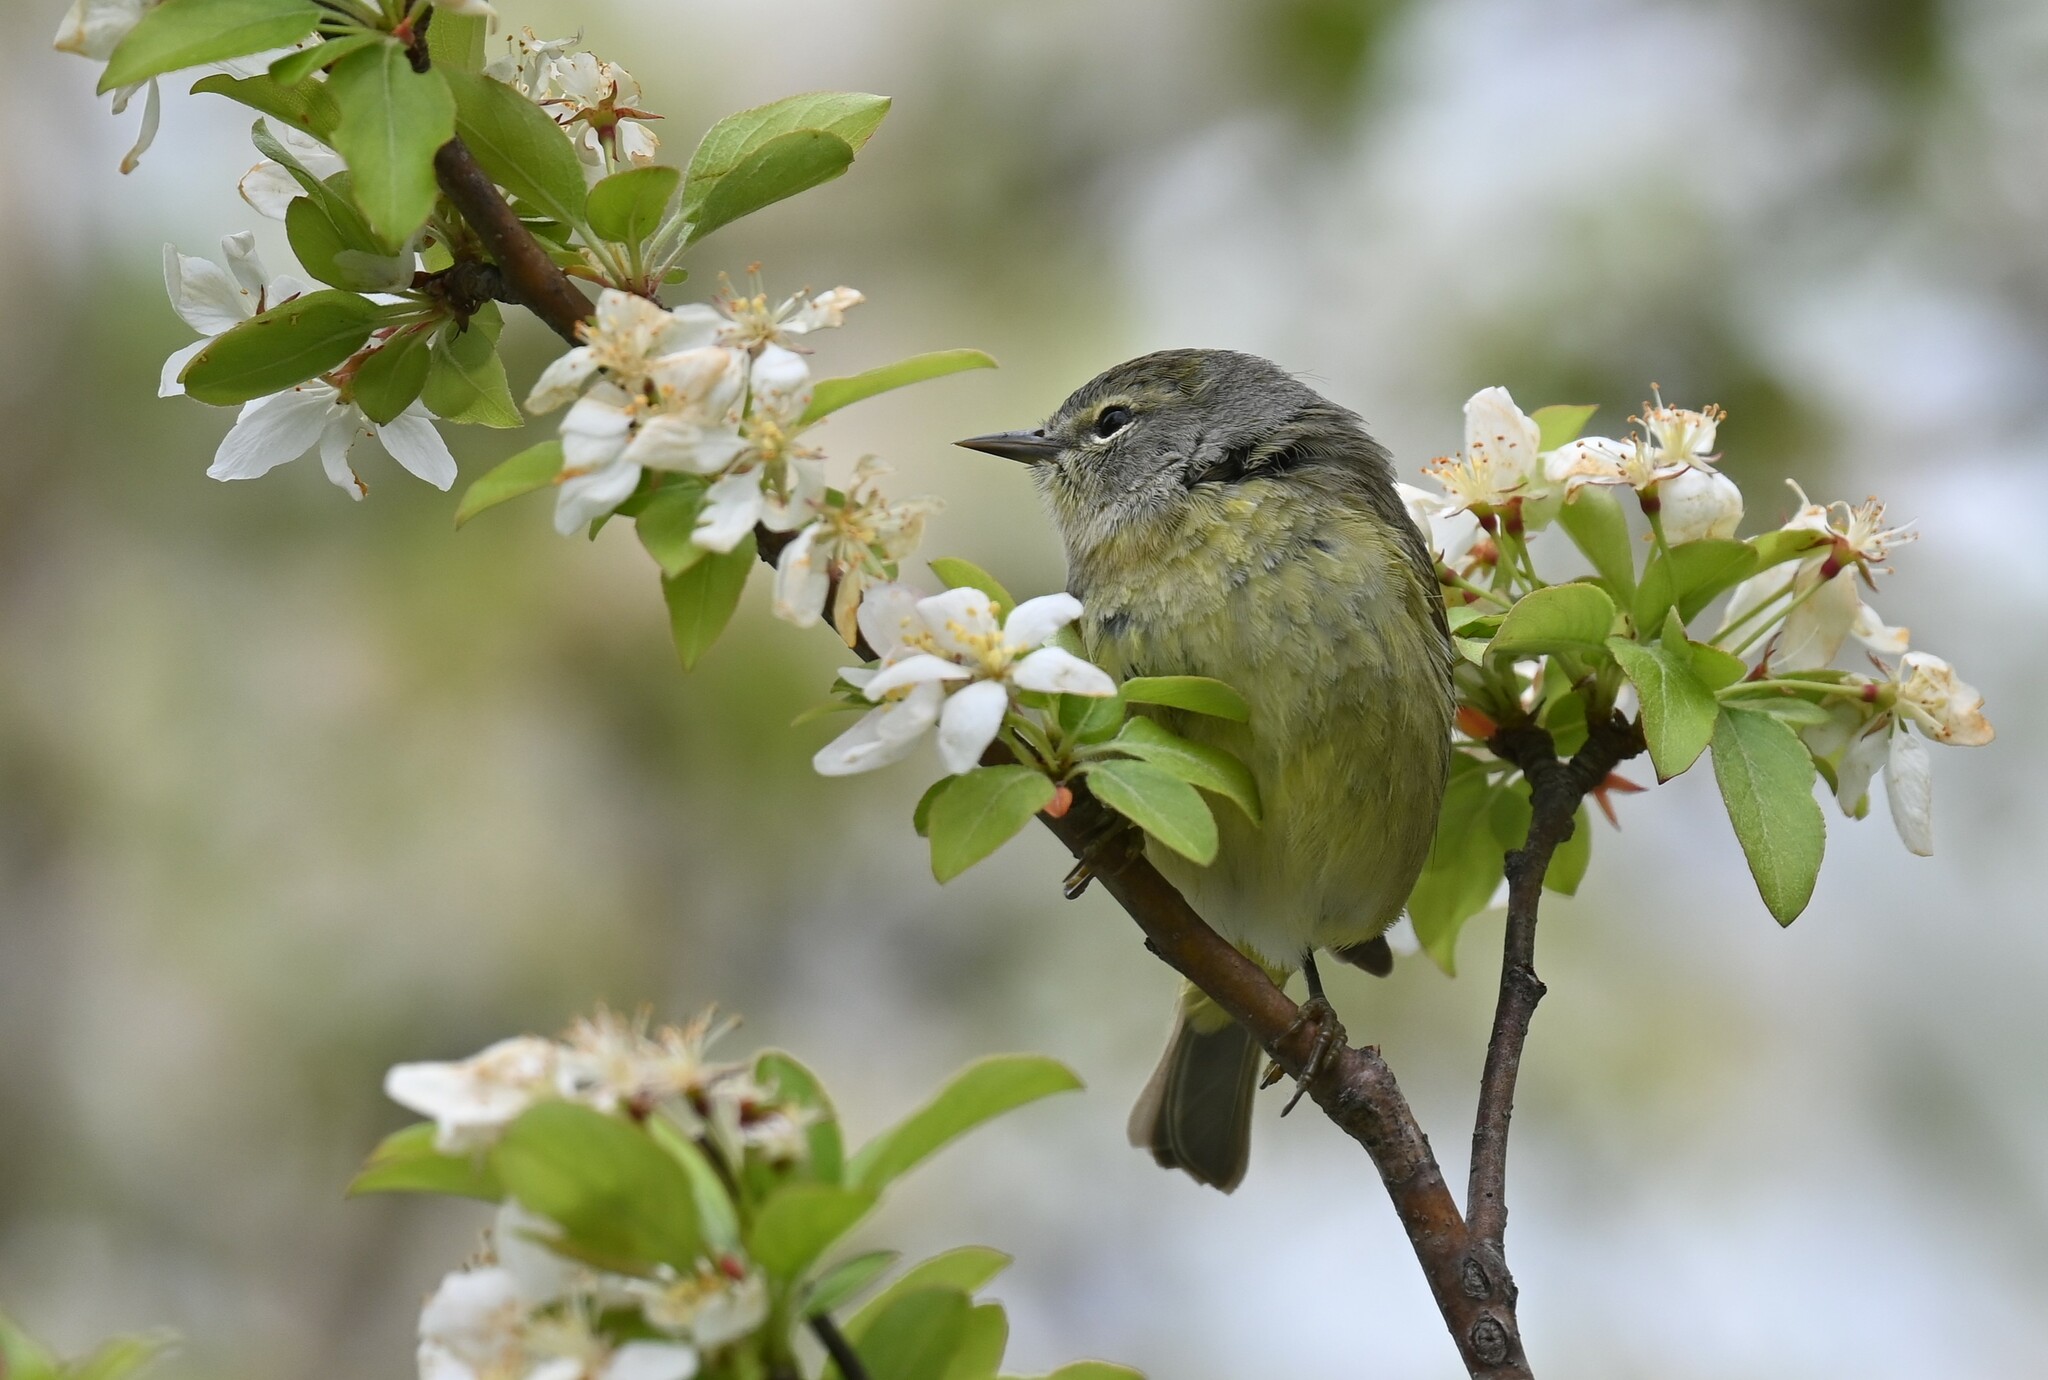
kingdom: Animalia
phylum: Chordata
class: Aves
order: Passeriformes
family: Parulidae
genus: Leiothlypis
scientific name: Leiothlypis celata
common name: Orange-crowned warbler
